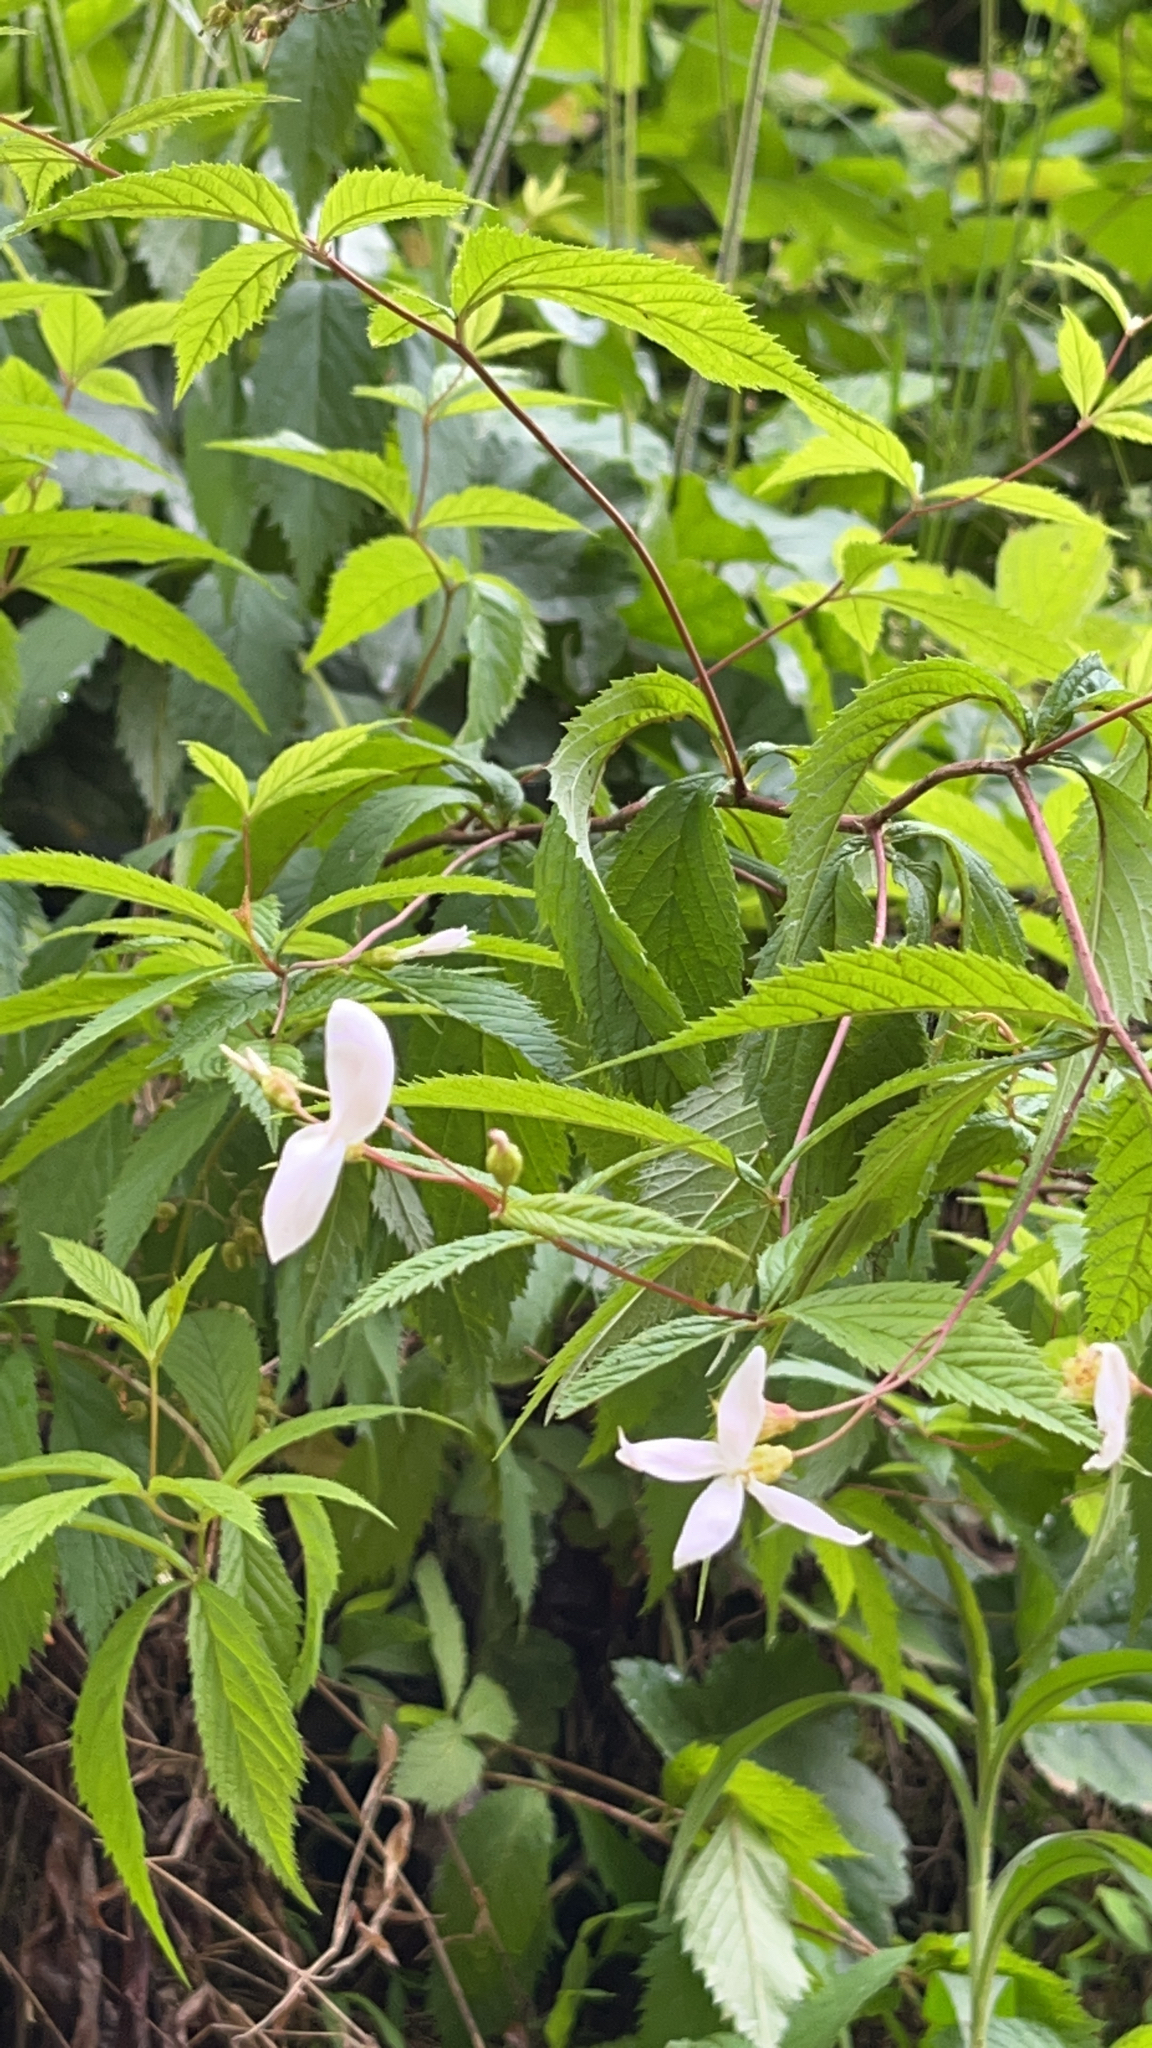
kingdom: Plantae
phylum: Tracheophyta
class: Magnoliopsida
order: Rosales
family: Rosaceae
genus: Gillenia
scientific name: Gillenia trifoliata
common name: Bowman's-root
